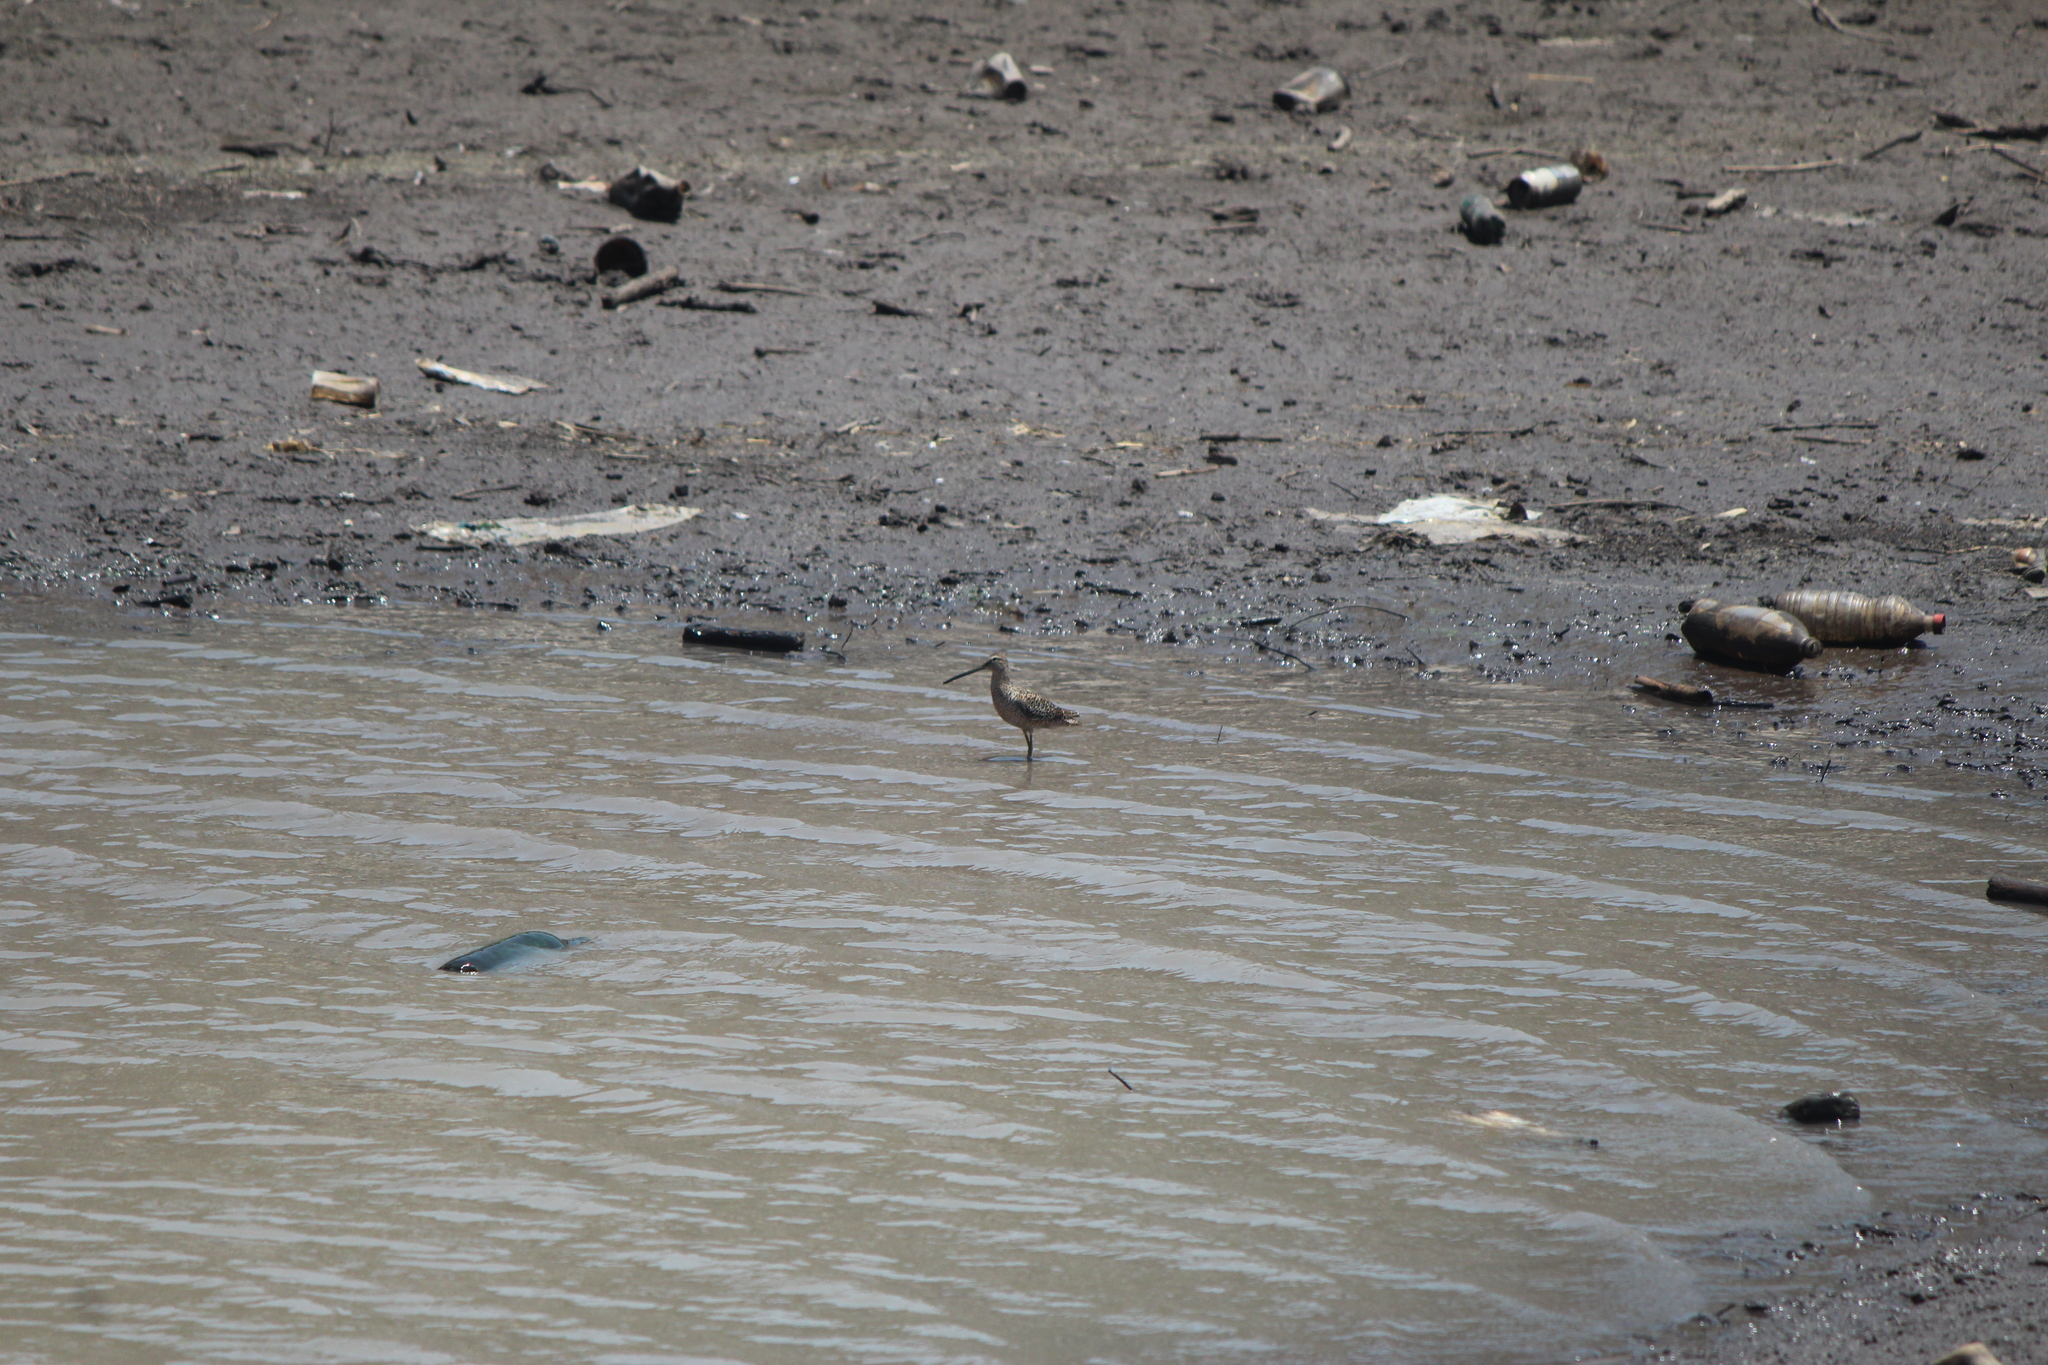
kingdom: Animalia
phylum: Chordata
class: Aves
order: Charadriiformes
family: Scolopacidae
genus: Limnodromus
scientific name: Limnodromus scolopaceus
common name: Long-billed dowitcher
